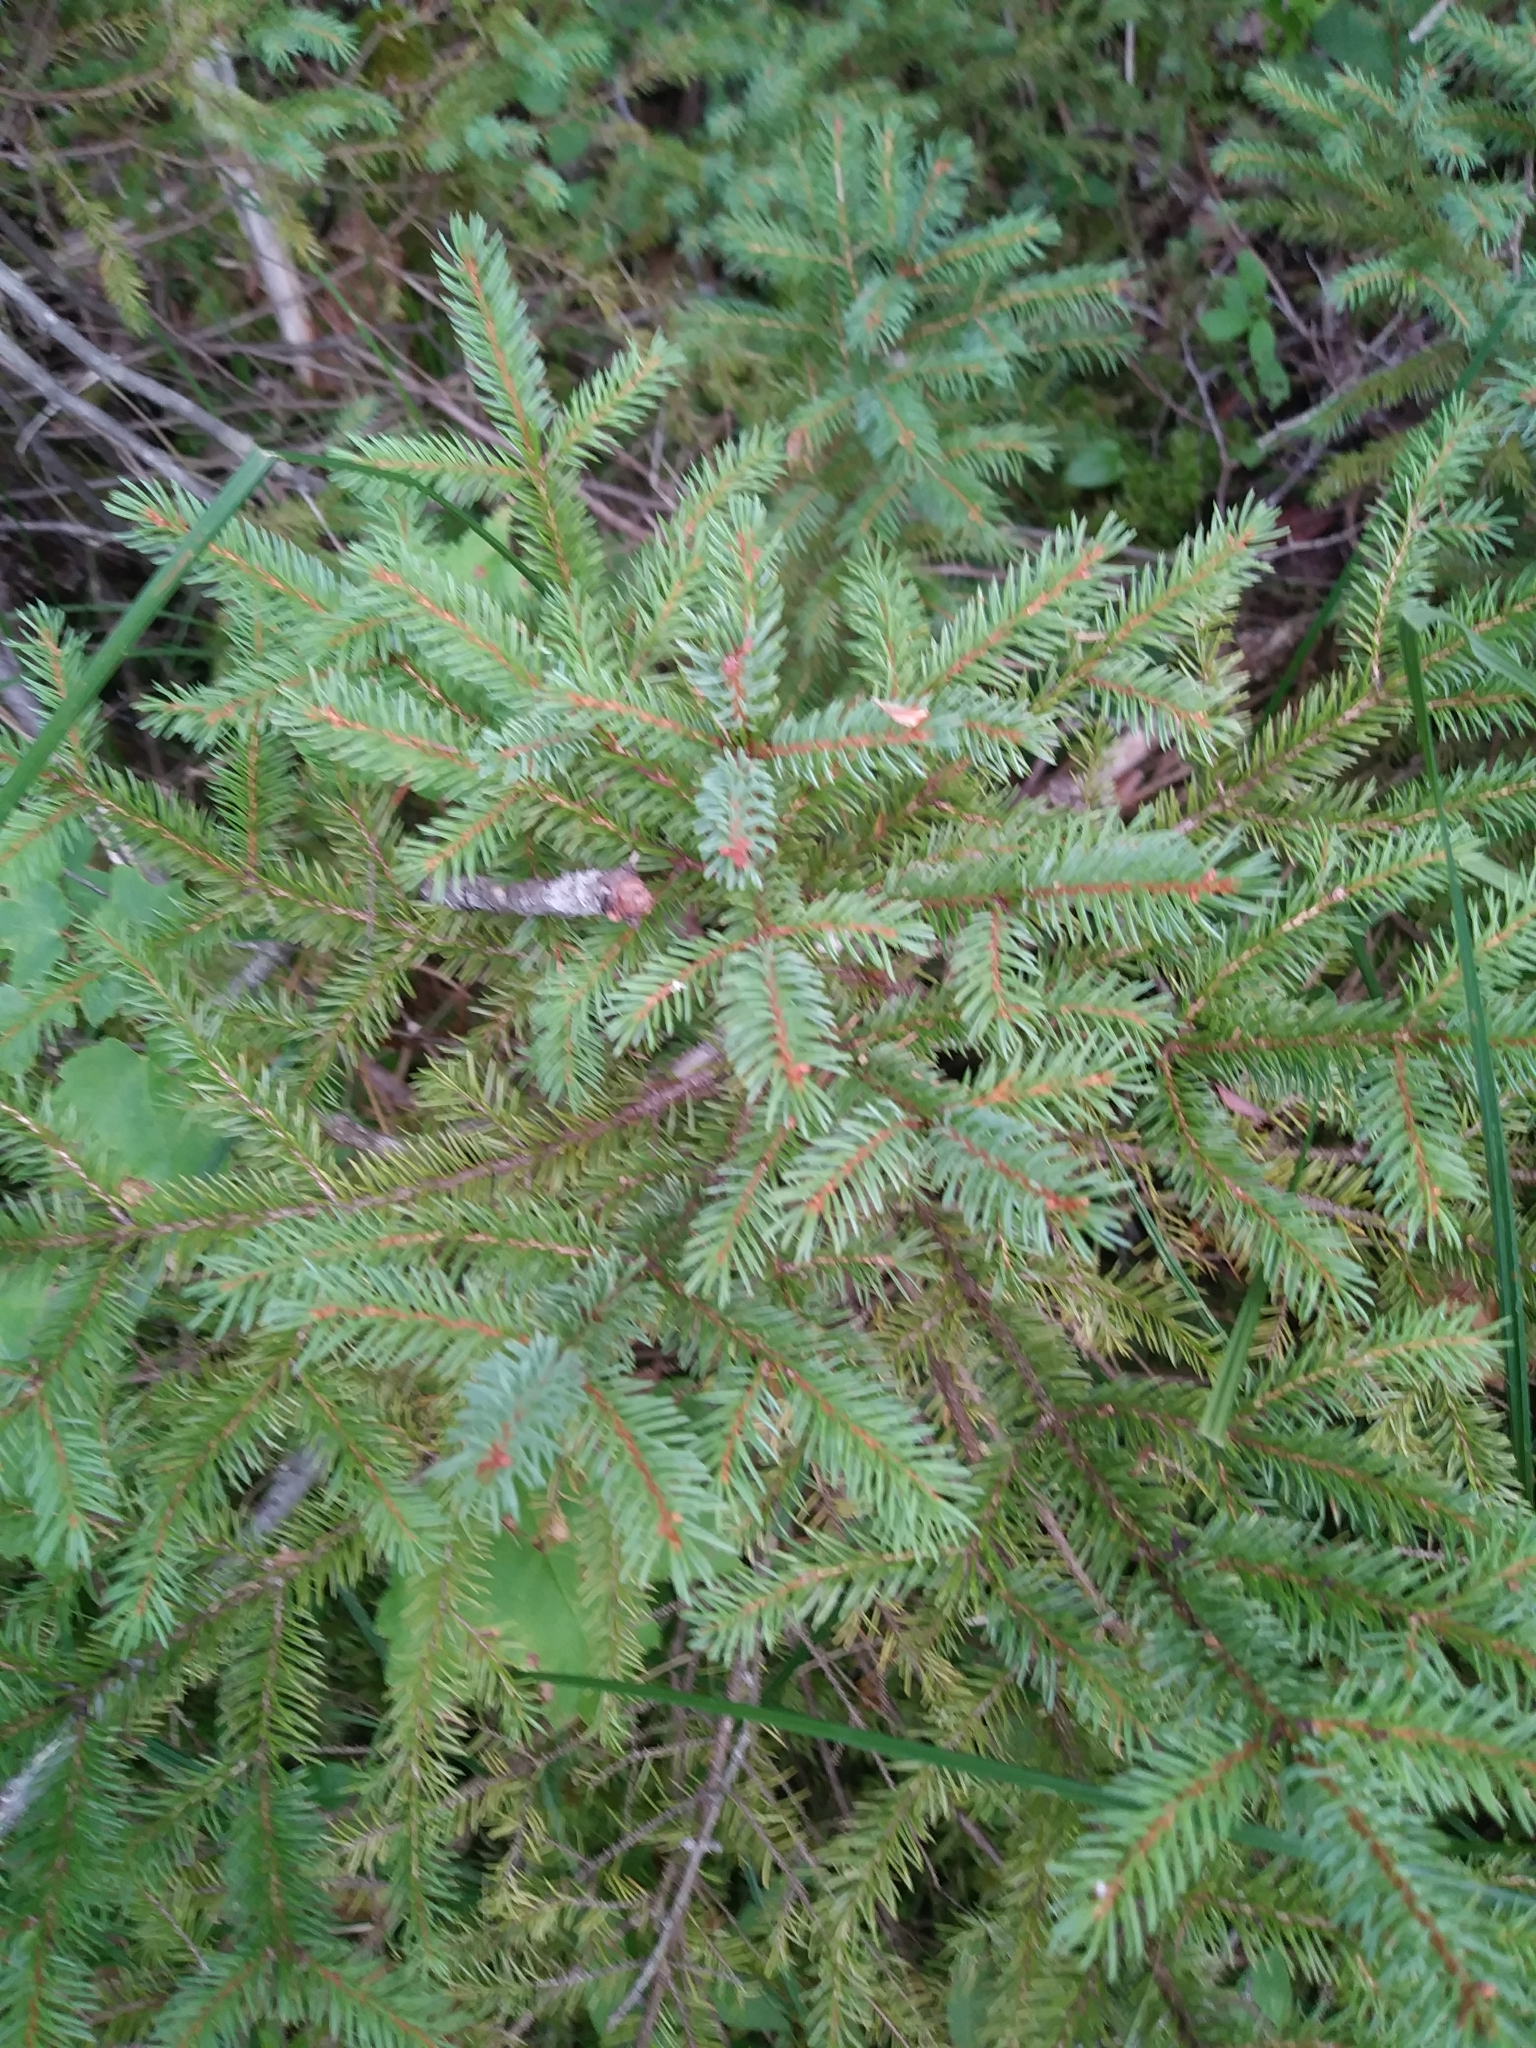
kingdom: Plantae
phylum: Tracheophyta
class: Pinopsida
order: Pinales
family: Pinaceae
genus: Picea
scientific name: Picea mariana
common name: Black spruce
